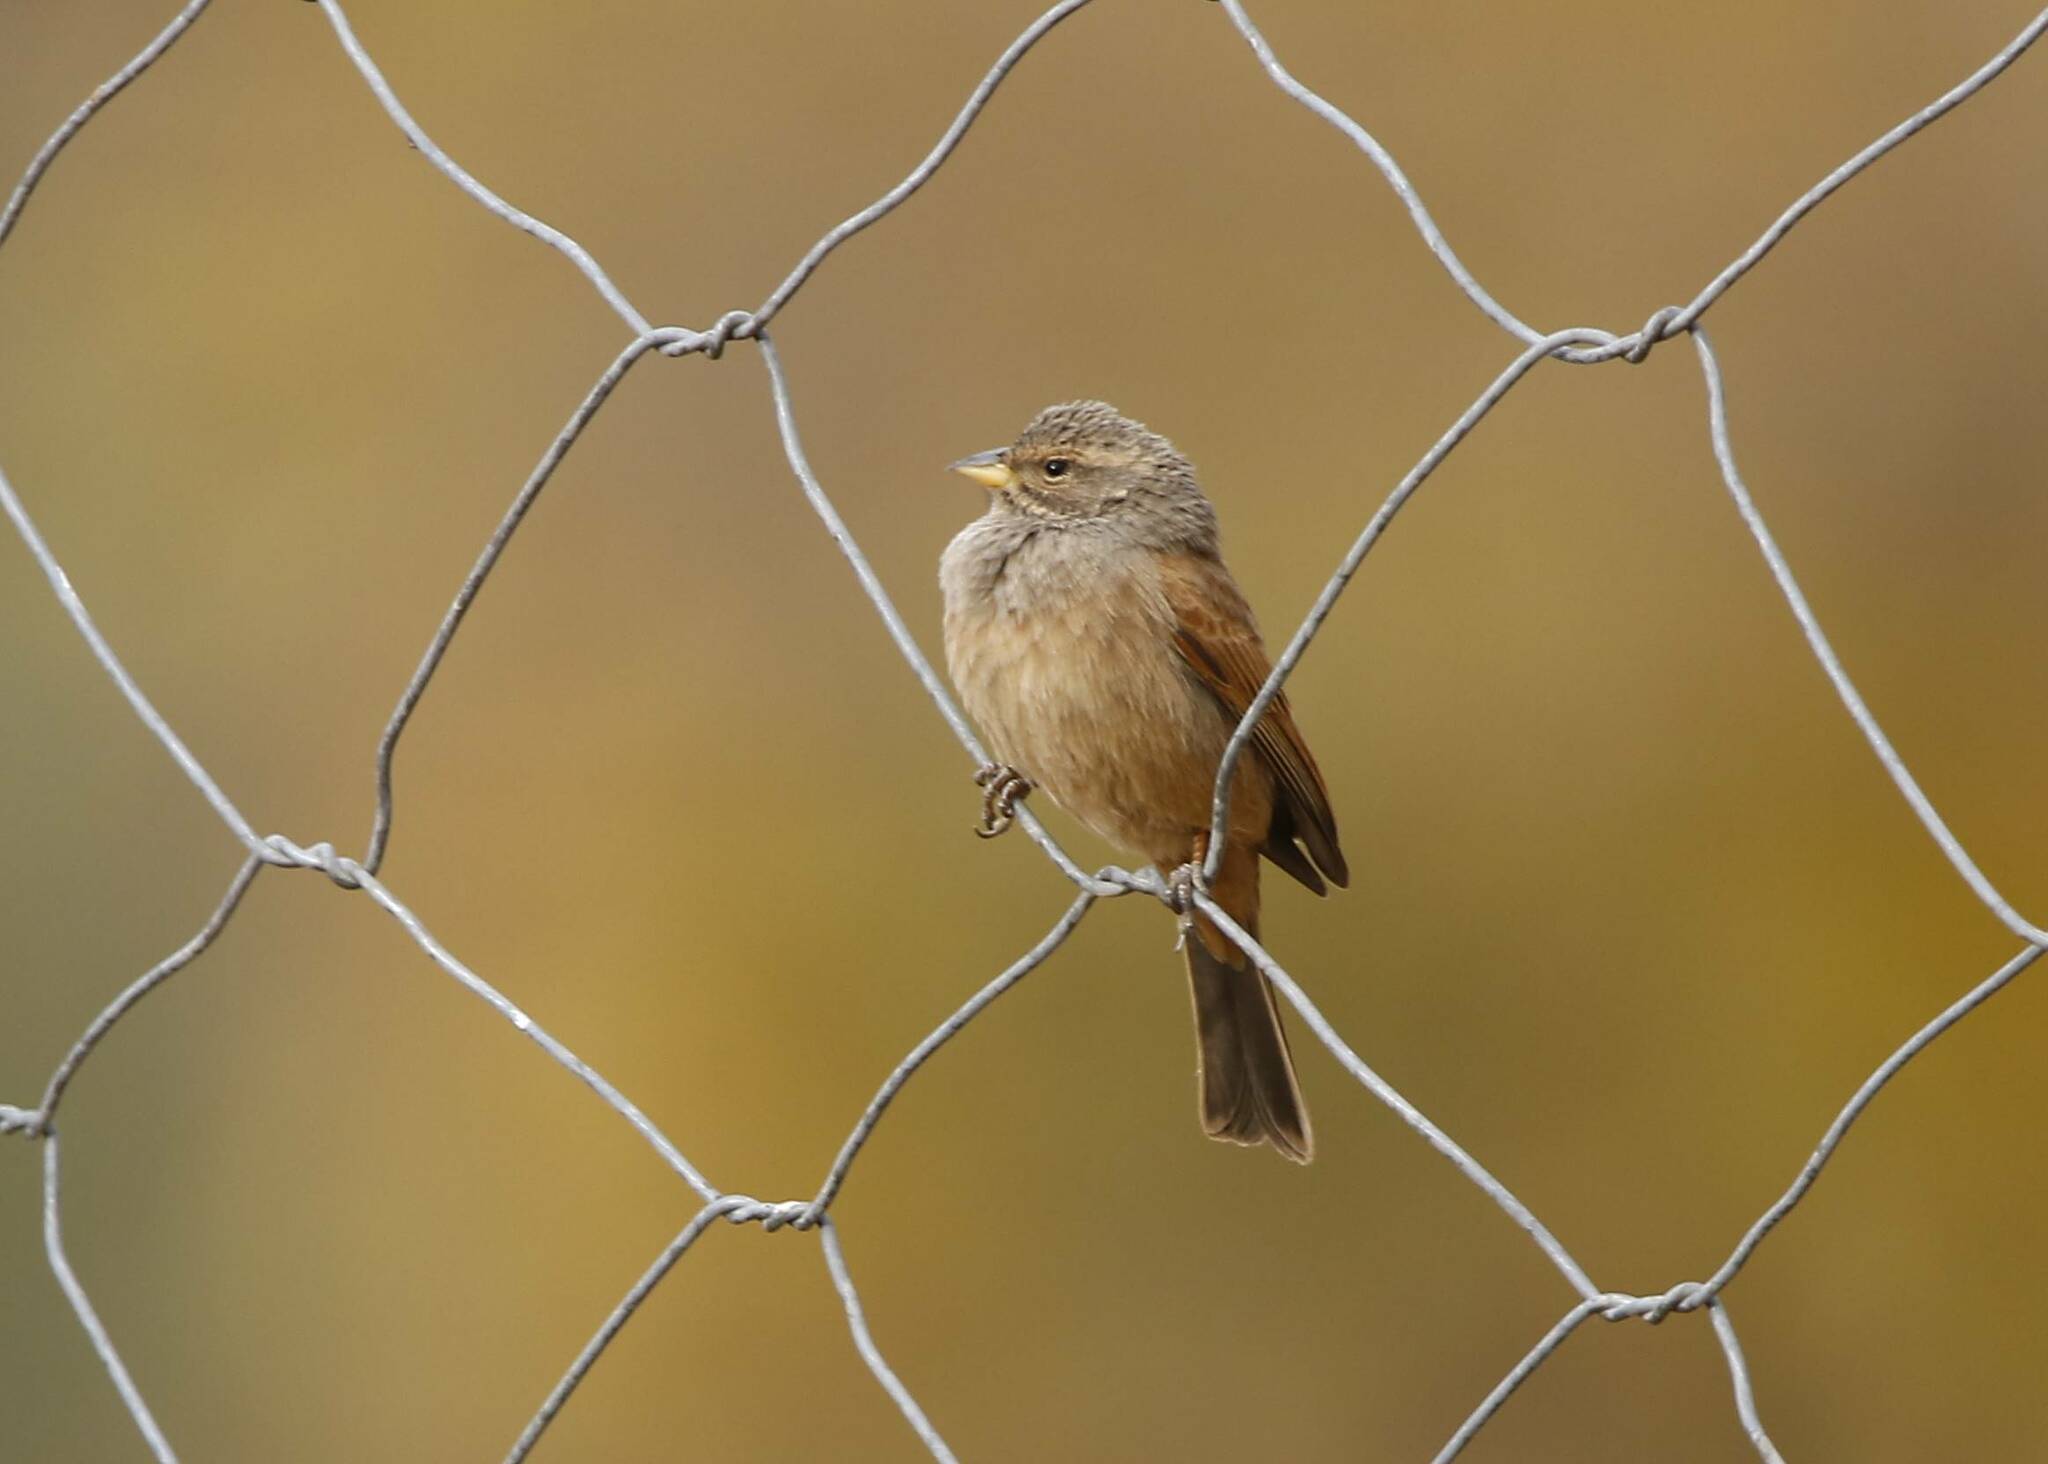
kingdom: Animalia
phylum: Chordata
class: Aves
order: Passeriformes
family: Emberizidae
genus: Emberiza
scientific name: Emberiza sahari
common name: House bunting
